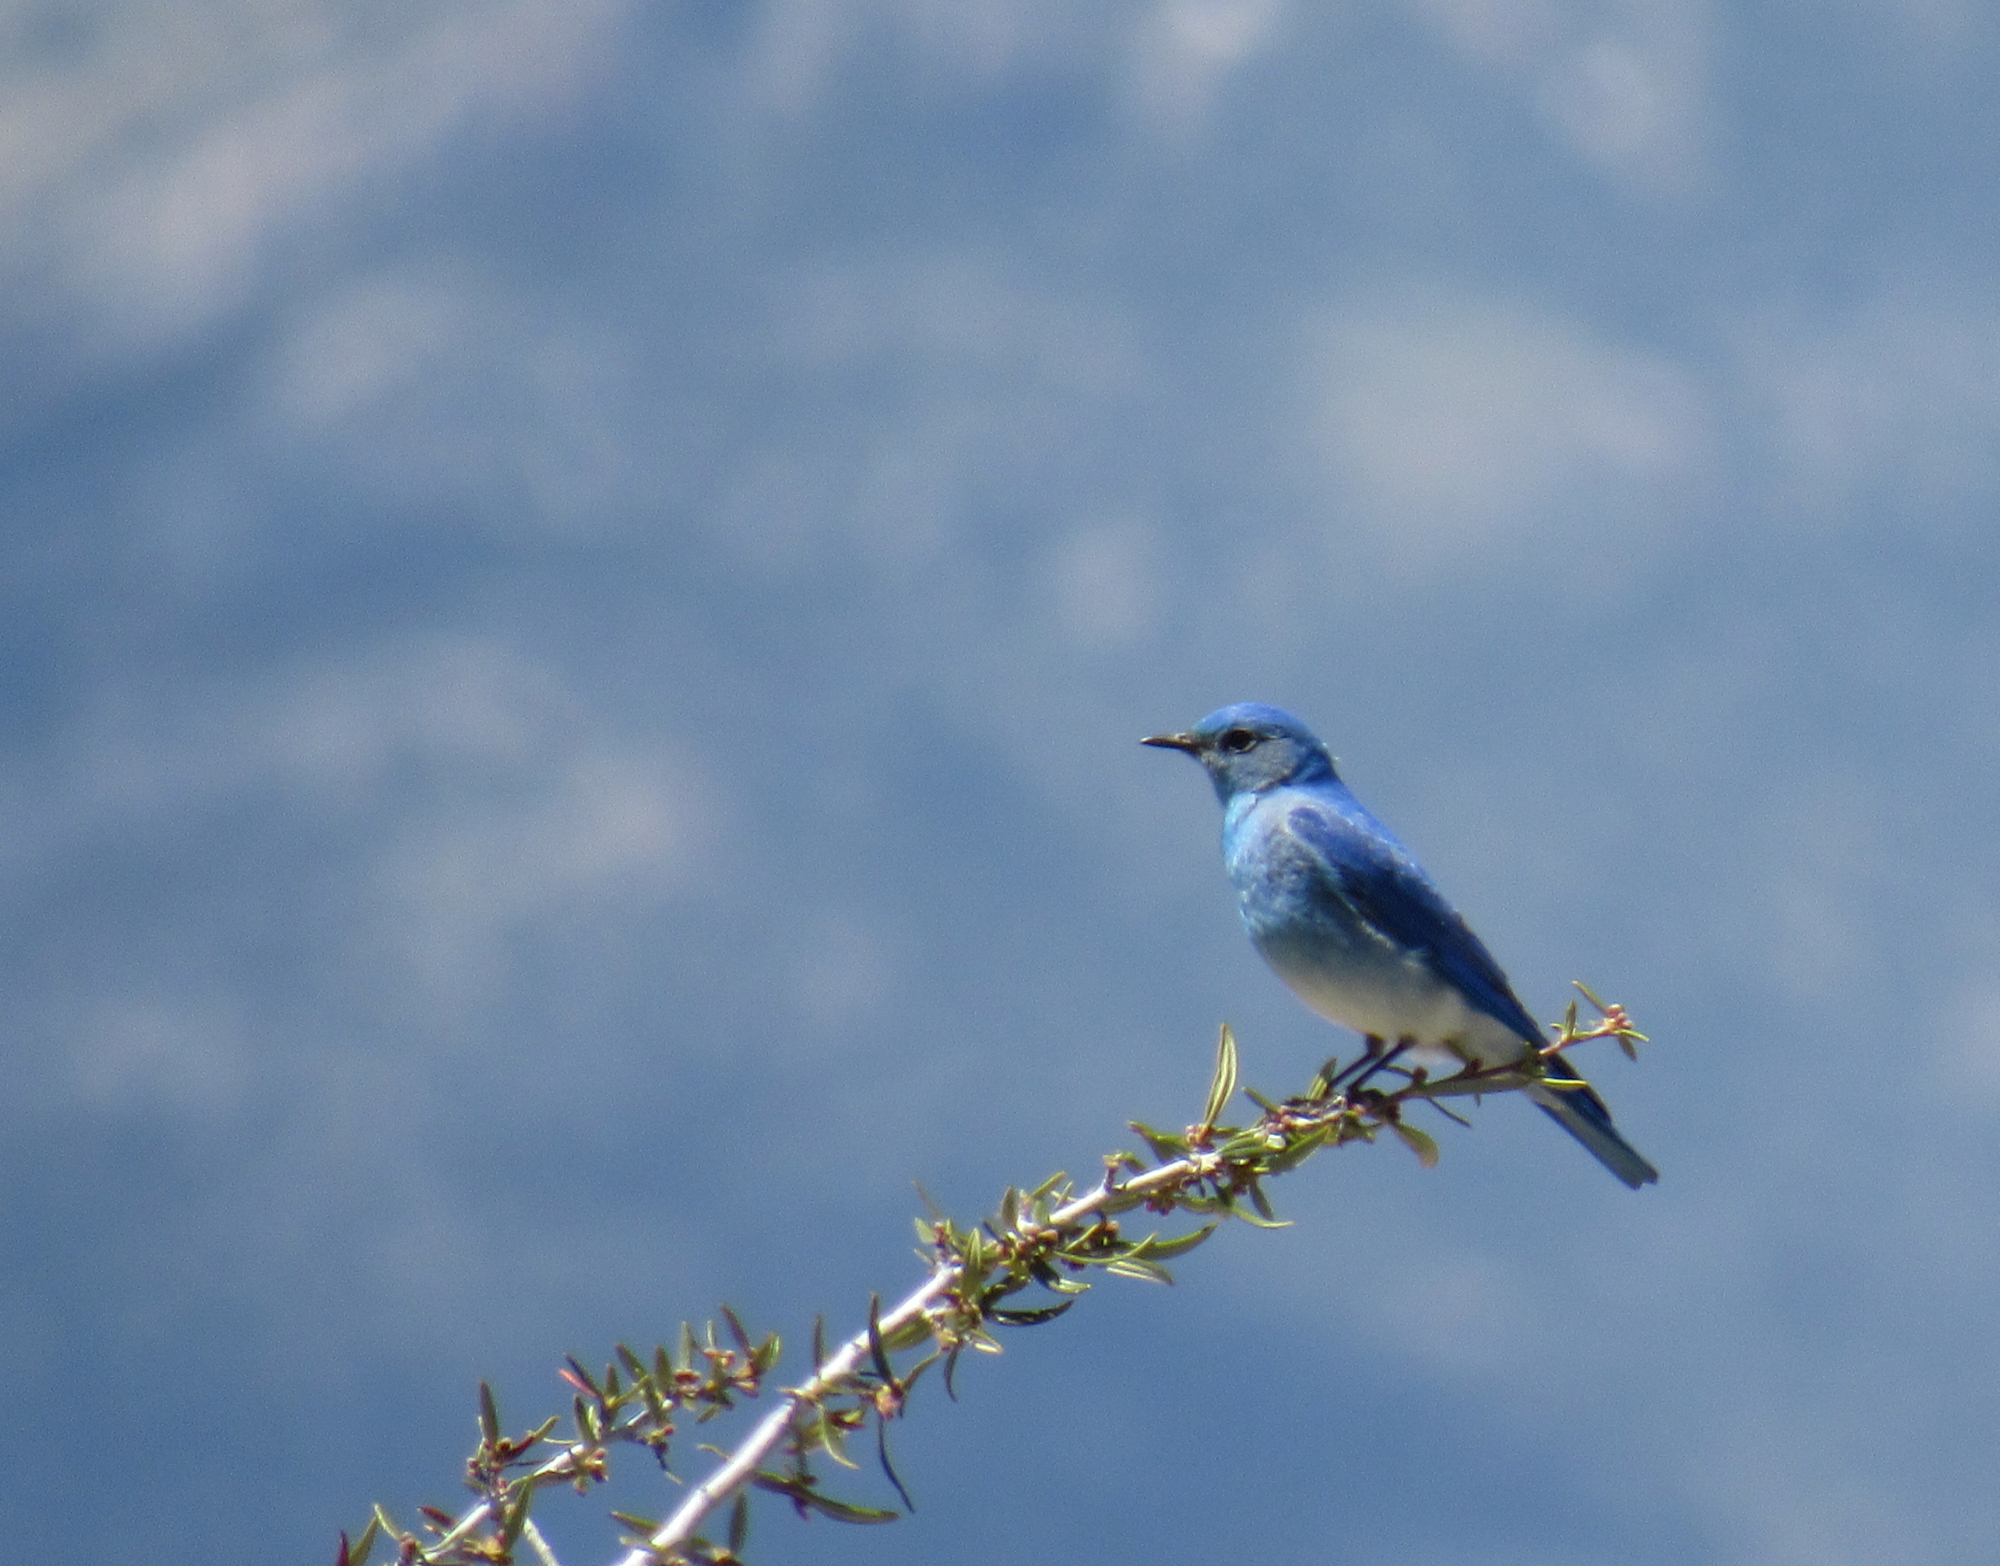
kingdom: Animalia
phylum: Chordata
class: Aves
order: Passeriformes
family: Turdidae
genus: Sialia
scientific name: Sialia currucoides
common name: Mountain bluebird
